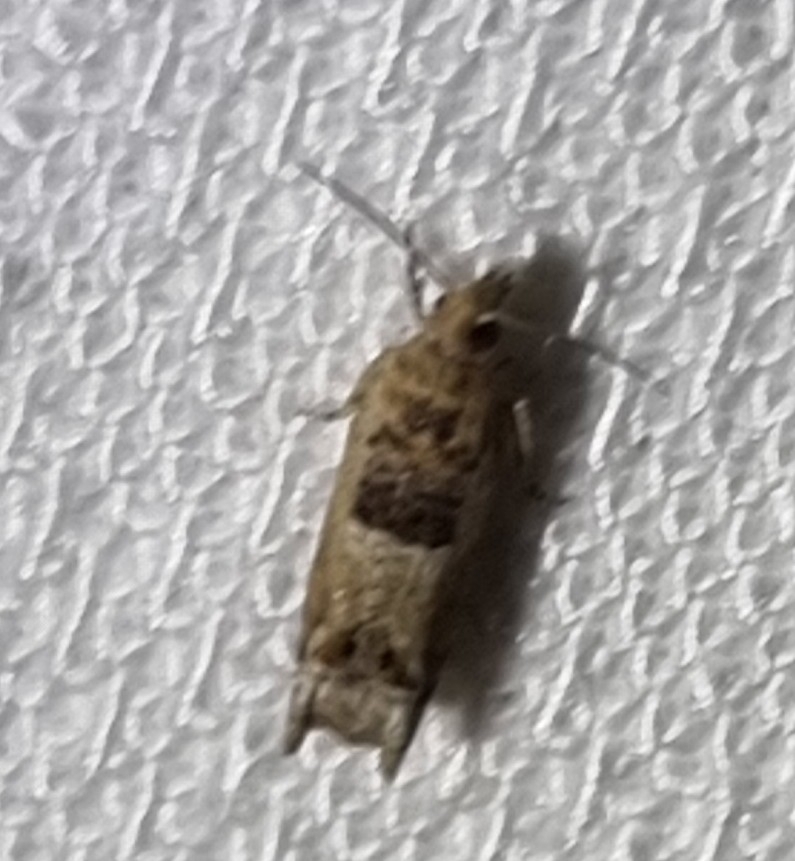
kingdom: Animalia
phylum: Arthropoda
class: Insecta
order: Lepidoptera
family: Tortricidae
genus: Crocidosema
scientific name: Crocidosema plebejana
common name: Southern bell
